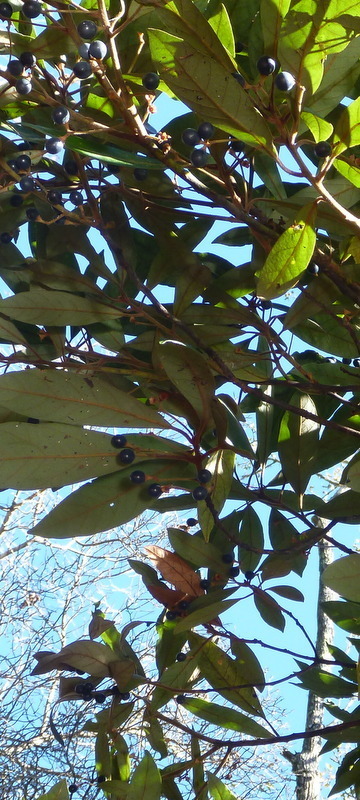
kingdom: Plantae
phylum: Tracheophyta
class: Magnoliopsida
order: Laurales
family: Lauraceae
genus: Persea
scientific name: Persea palustris
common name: Swampbay
